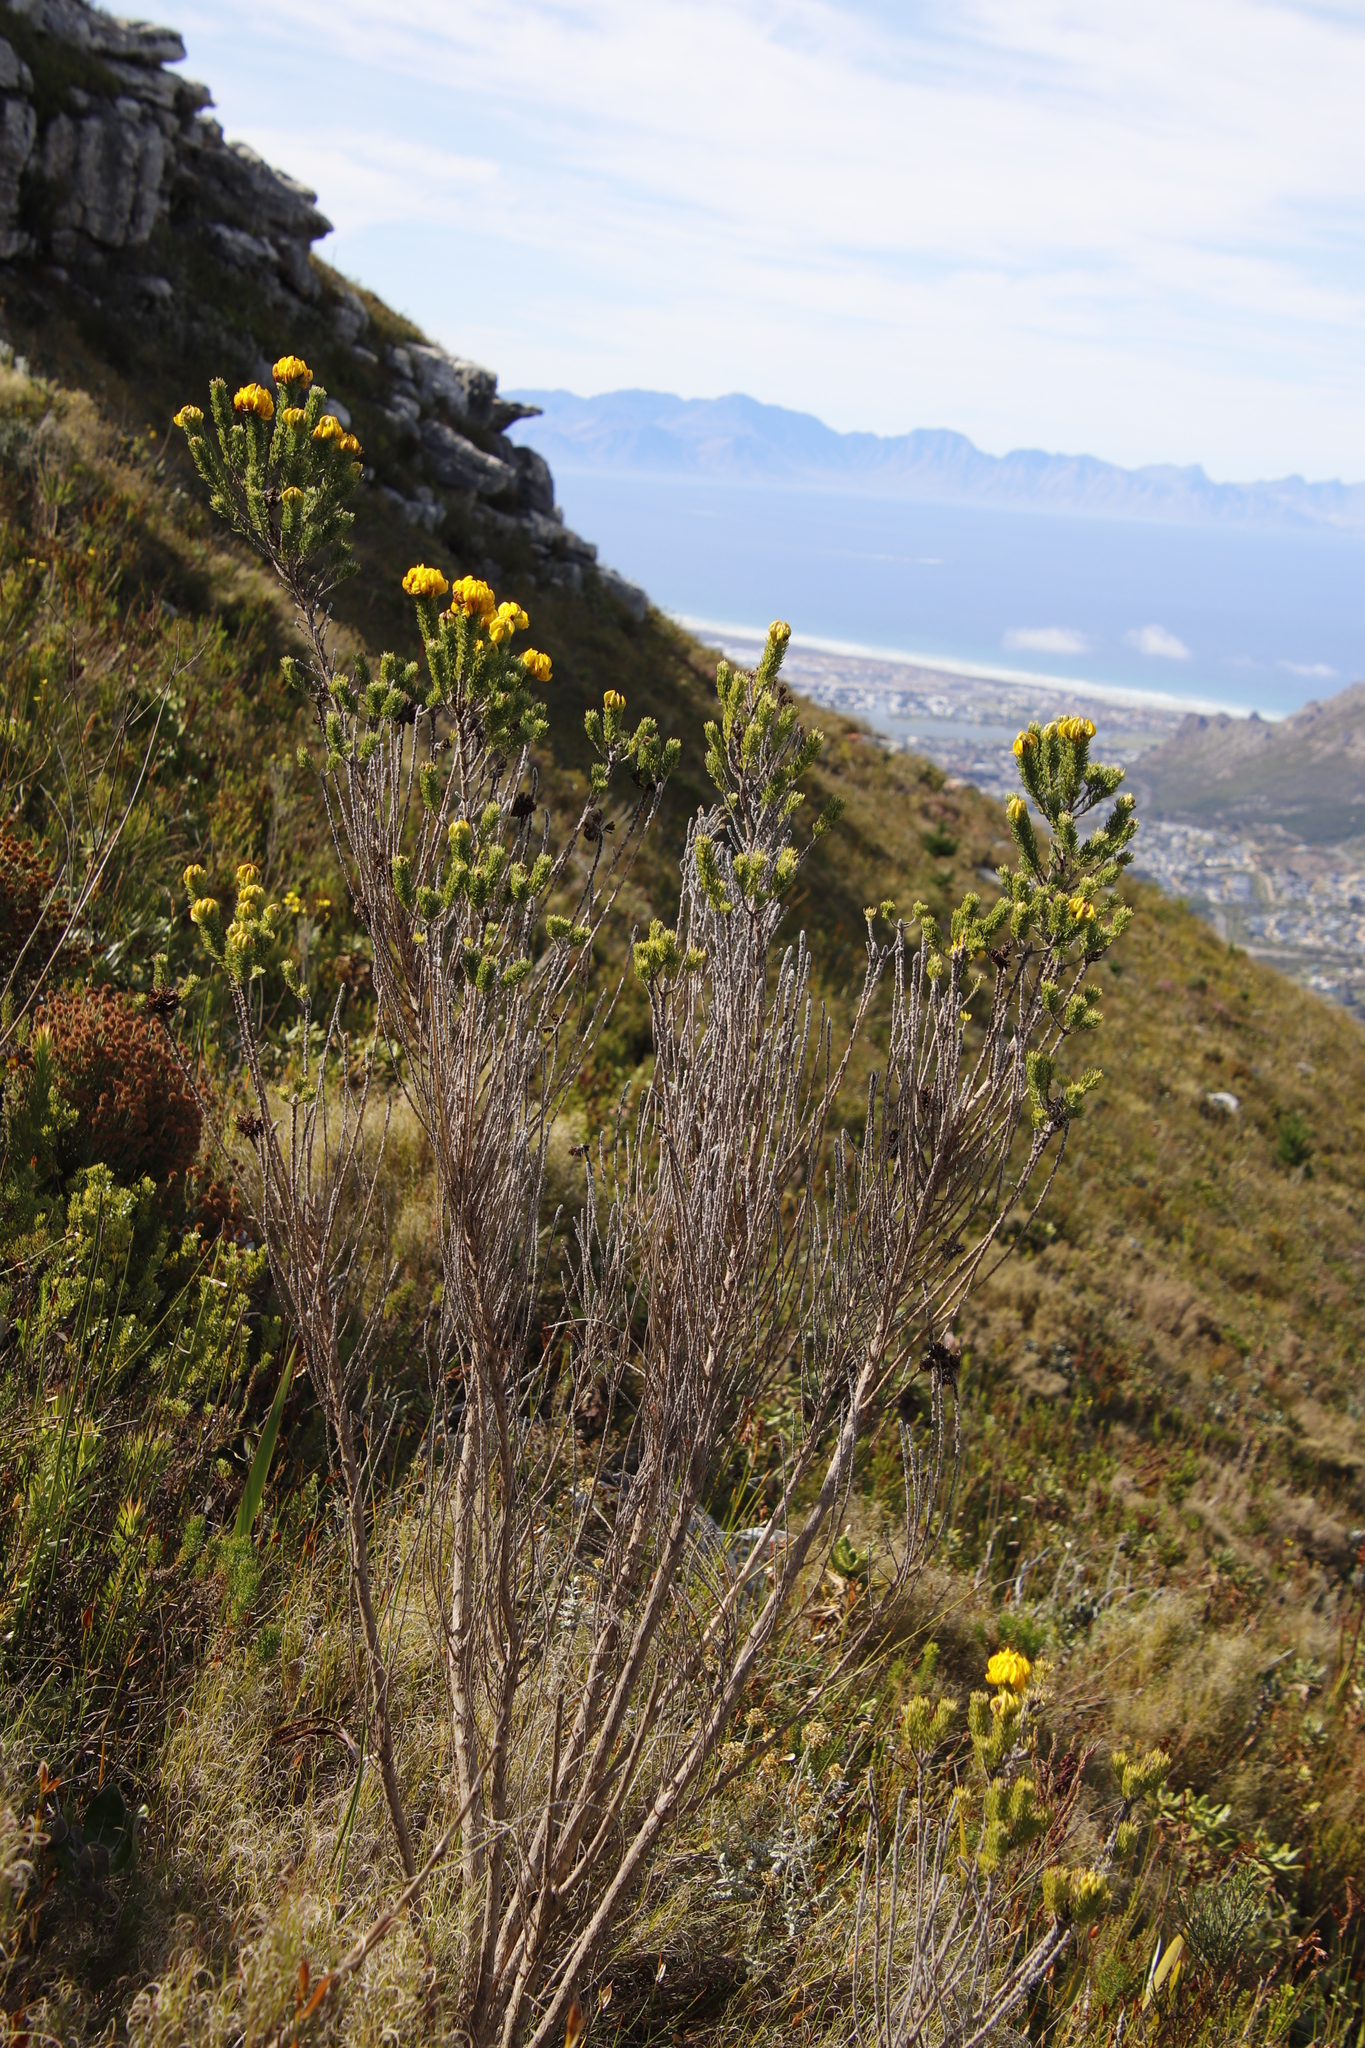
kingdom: Plantae
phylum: Tracheophyta
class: Magnoliopsida
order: Fabales
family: Fabaceae
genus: Aspalathus
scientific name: Aspalathus capitata
